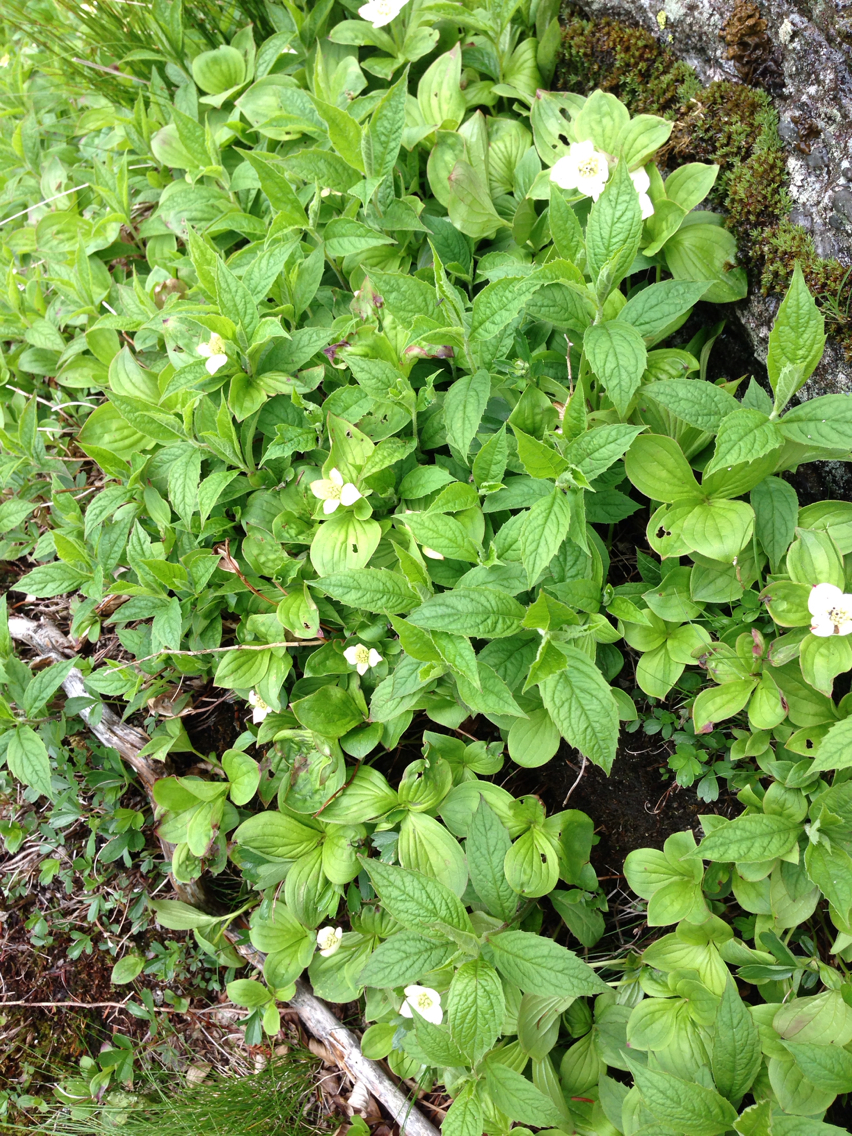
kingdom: Plantae
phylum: Tracheophyta
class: Magnoliopsida
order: Cornales
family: Cornaceae
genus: Cornus
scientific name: Cornus canadensis
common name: Creeping dogwood
